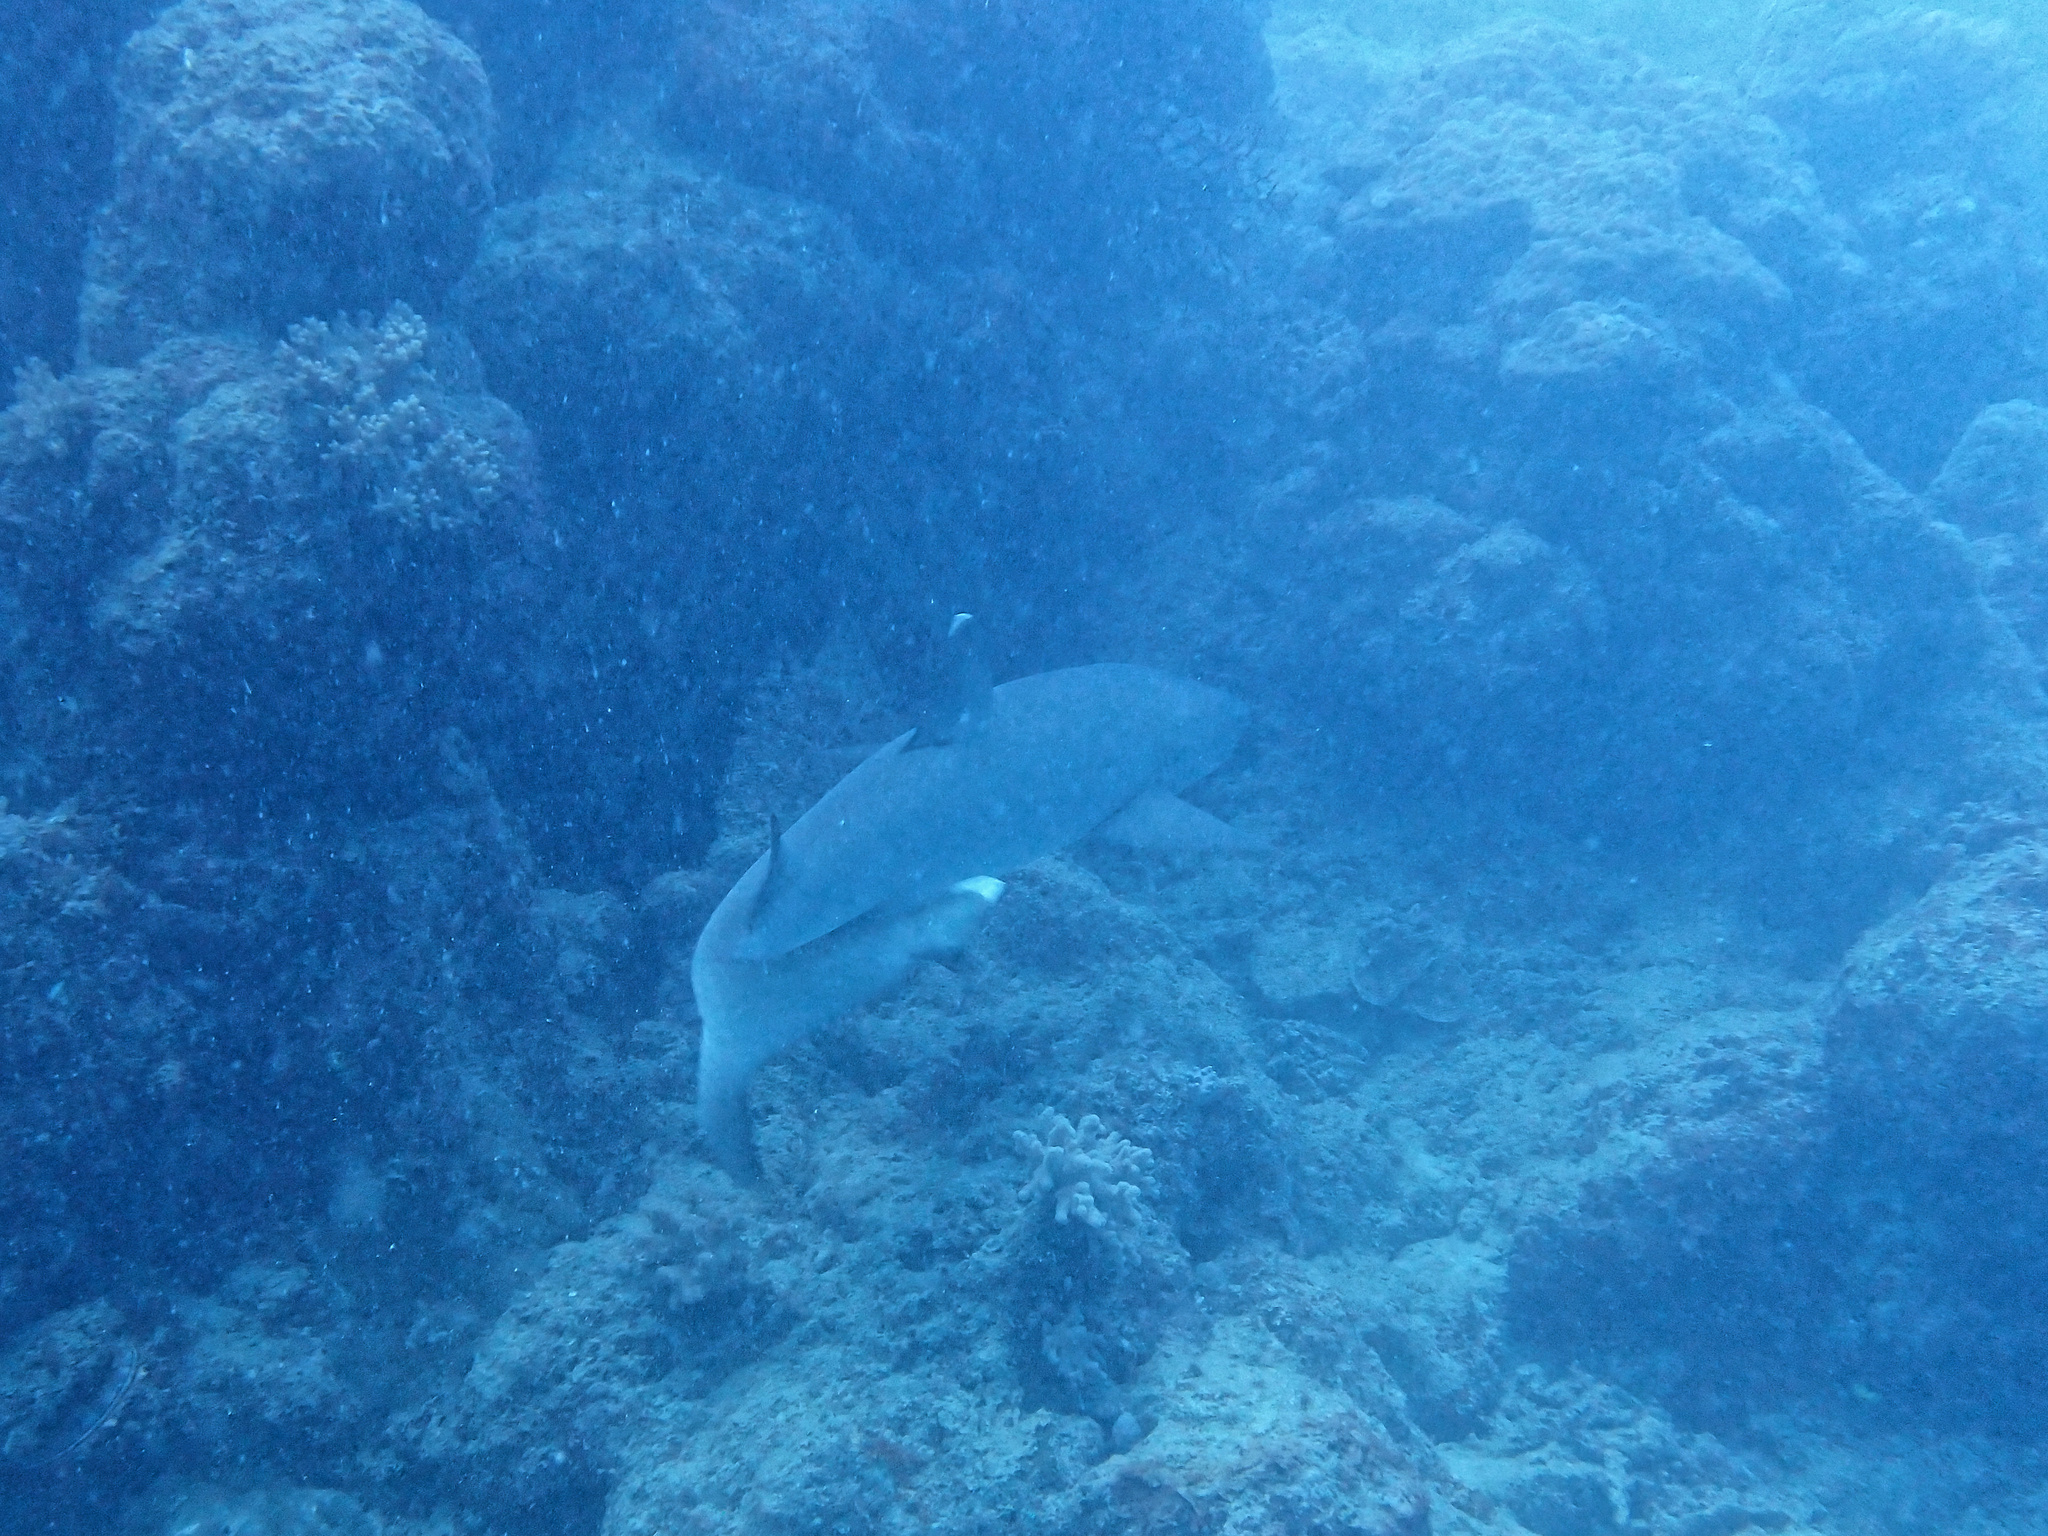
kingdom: Animalia
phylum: Chordata
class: Elasmobranchii
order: Carcharhiniformes
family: Carcharhinidae
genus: Triaenodon
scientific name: Triaenodon obesus
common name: Whitetip reef shark
